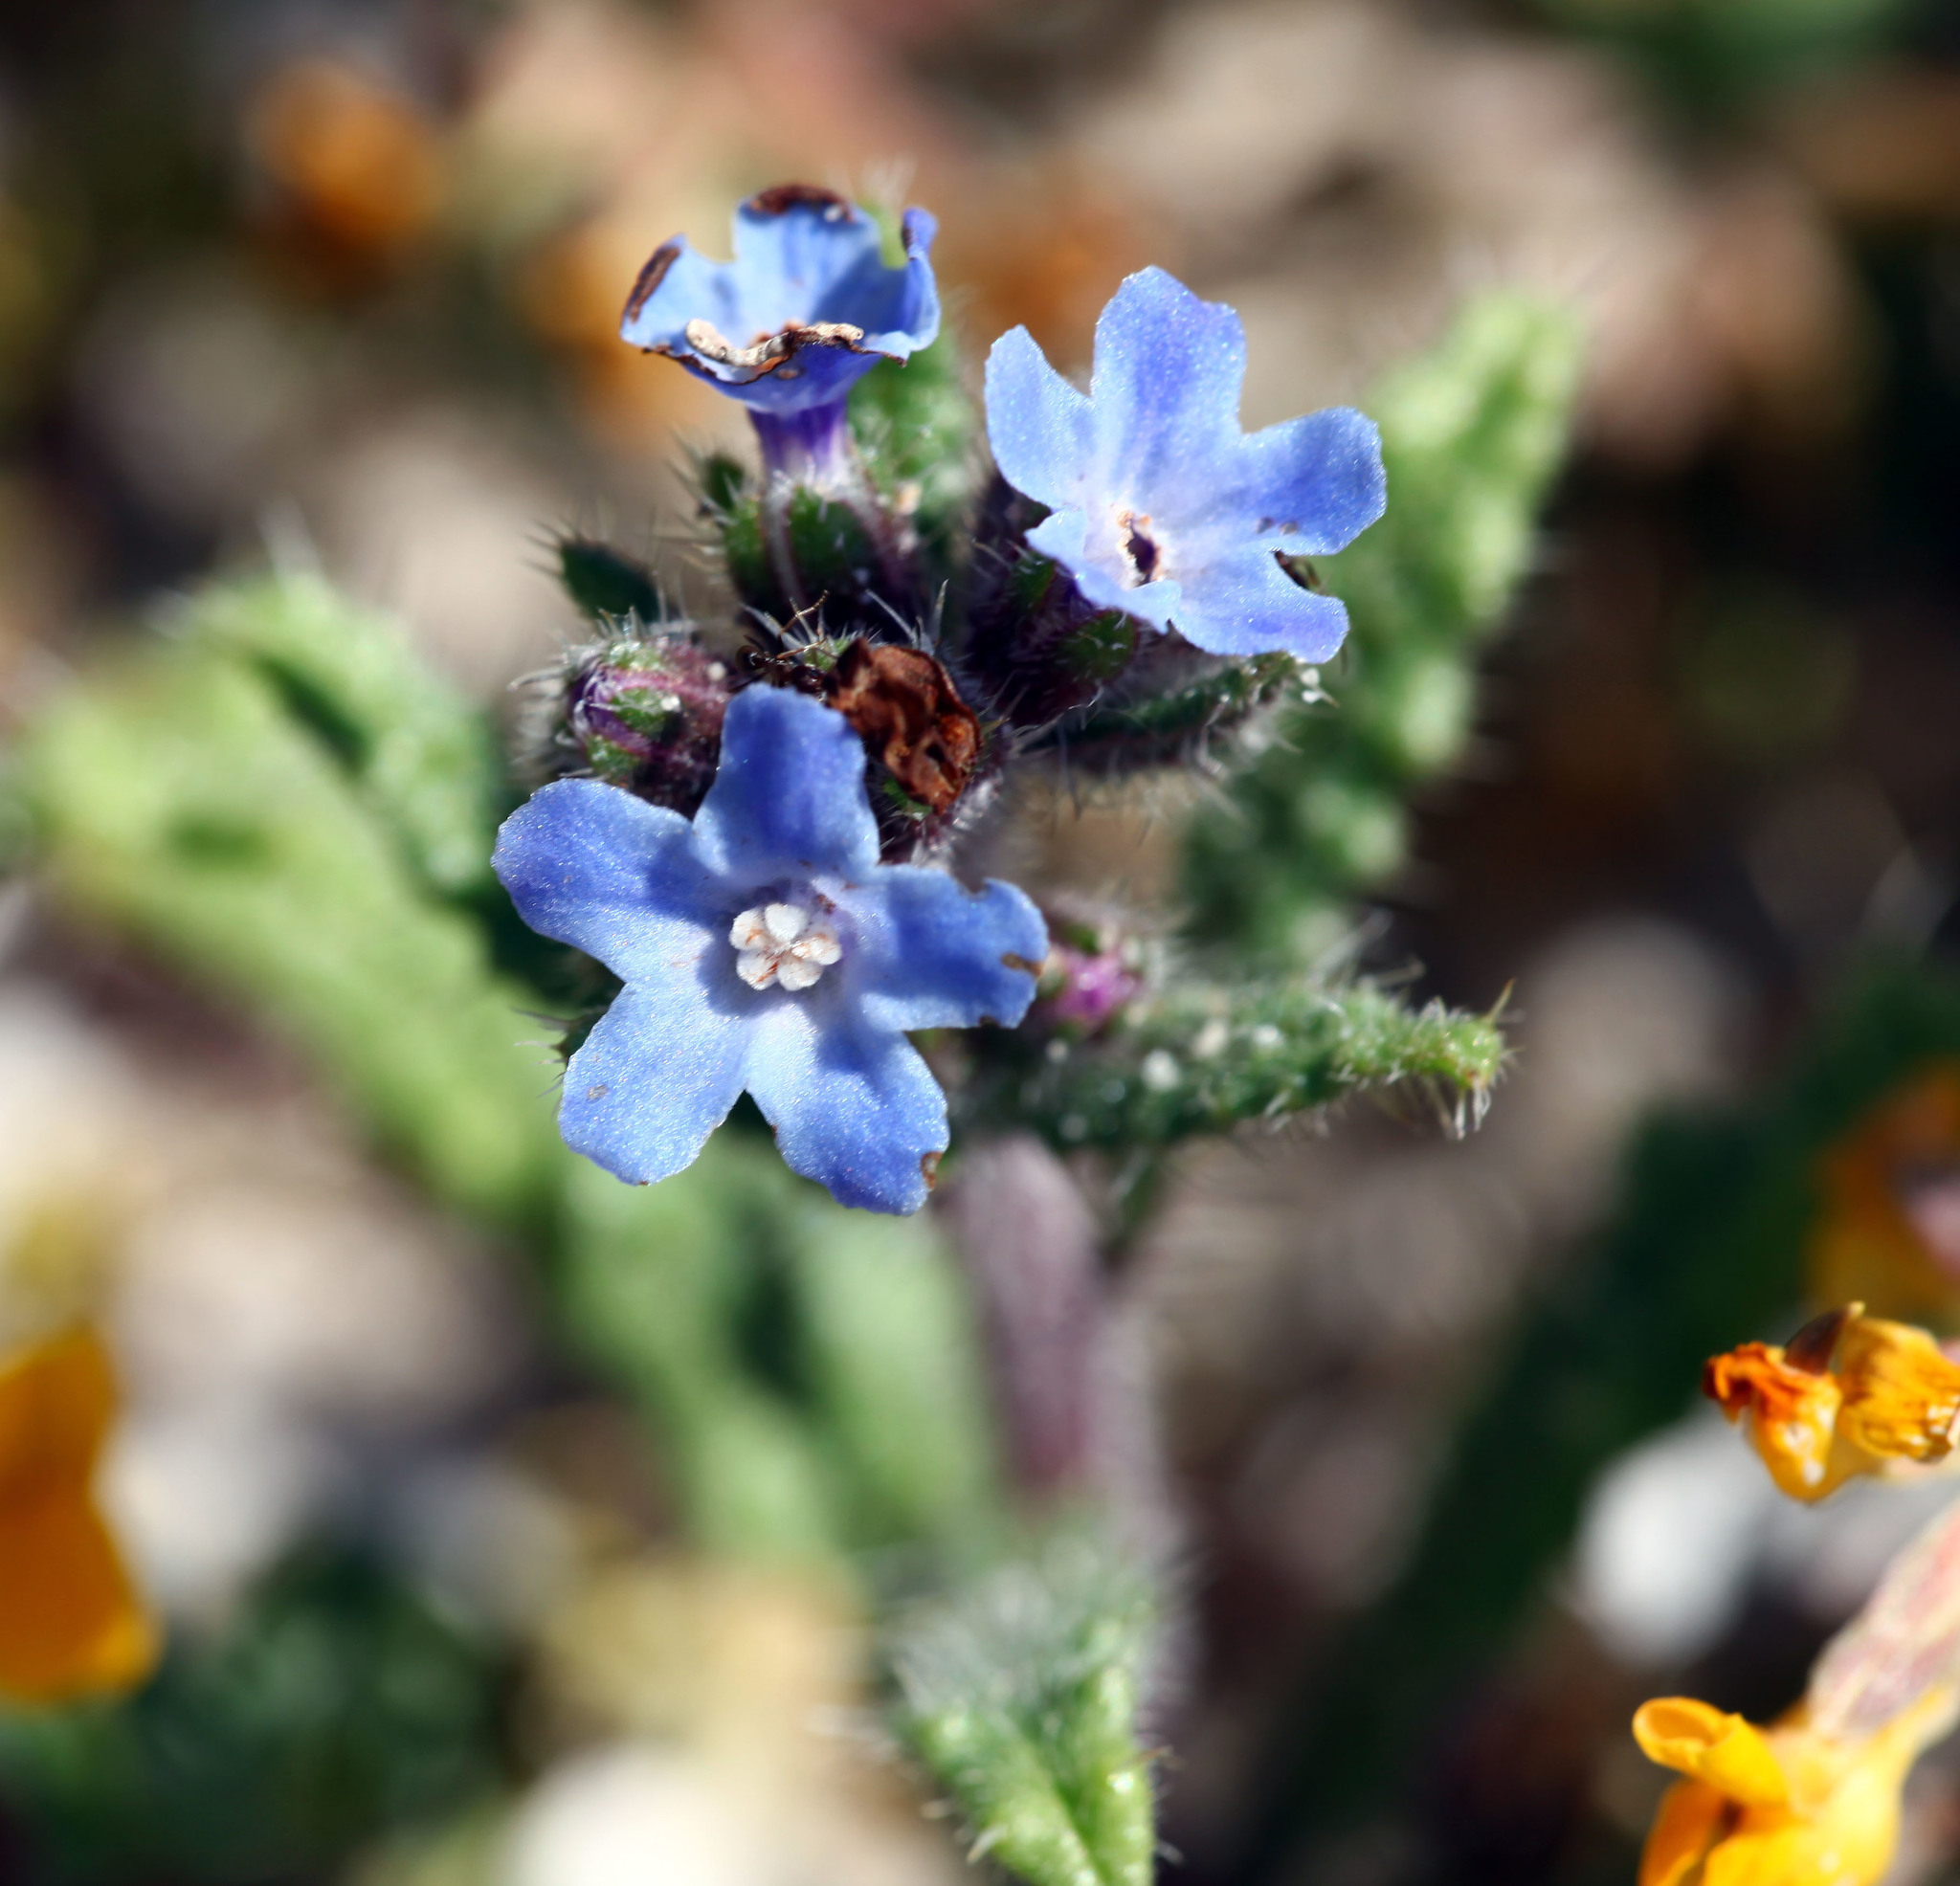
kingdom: Plantae
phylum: Tracheophyta
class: Magnoliopsida
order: Boraginales
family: Boraginaceae
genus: Anchusa
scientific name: Anchusa crispa
